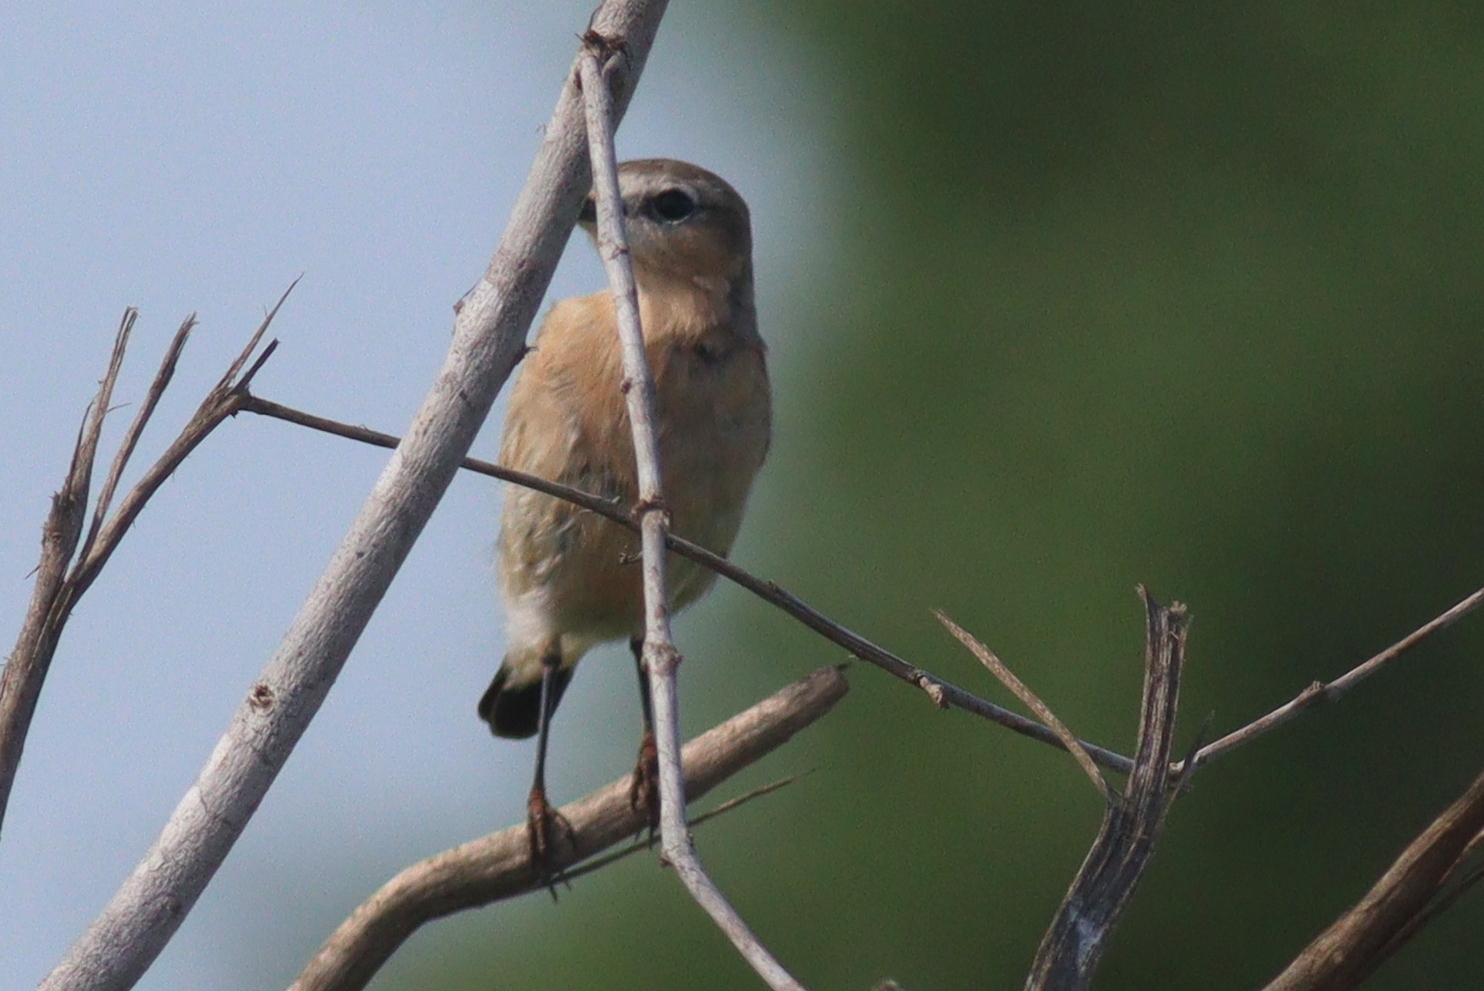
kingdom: Animalia
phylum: Chordata
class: Aves
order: Passeriformes
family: Muscicapidae
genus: Oenanthe
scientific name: Oenanthe isabellina
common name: Isabelline wheatear
